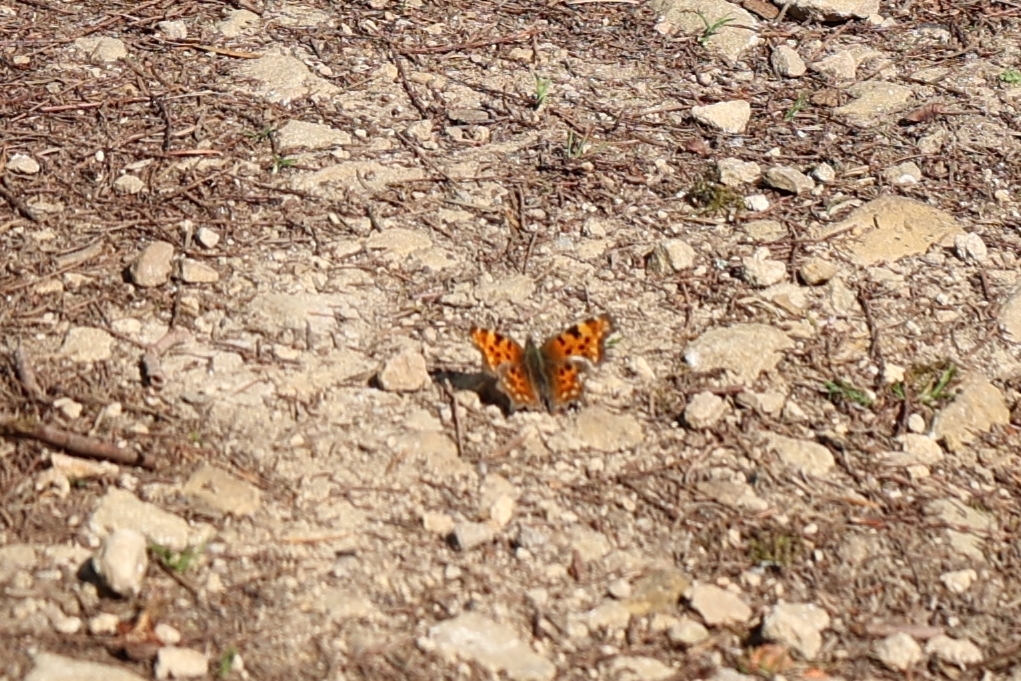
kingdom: Animalia
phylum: Arthropoda
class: Insecta
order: Lepidoptera
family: Nymphalidae
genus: Polygonia
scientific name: Polygonia c-album
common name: Comma
